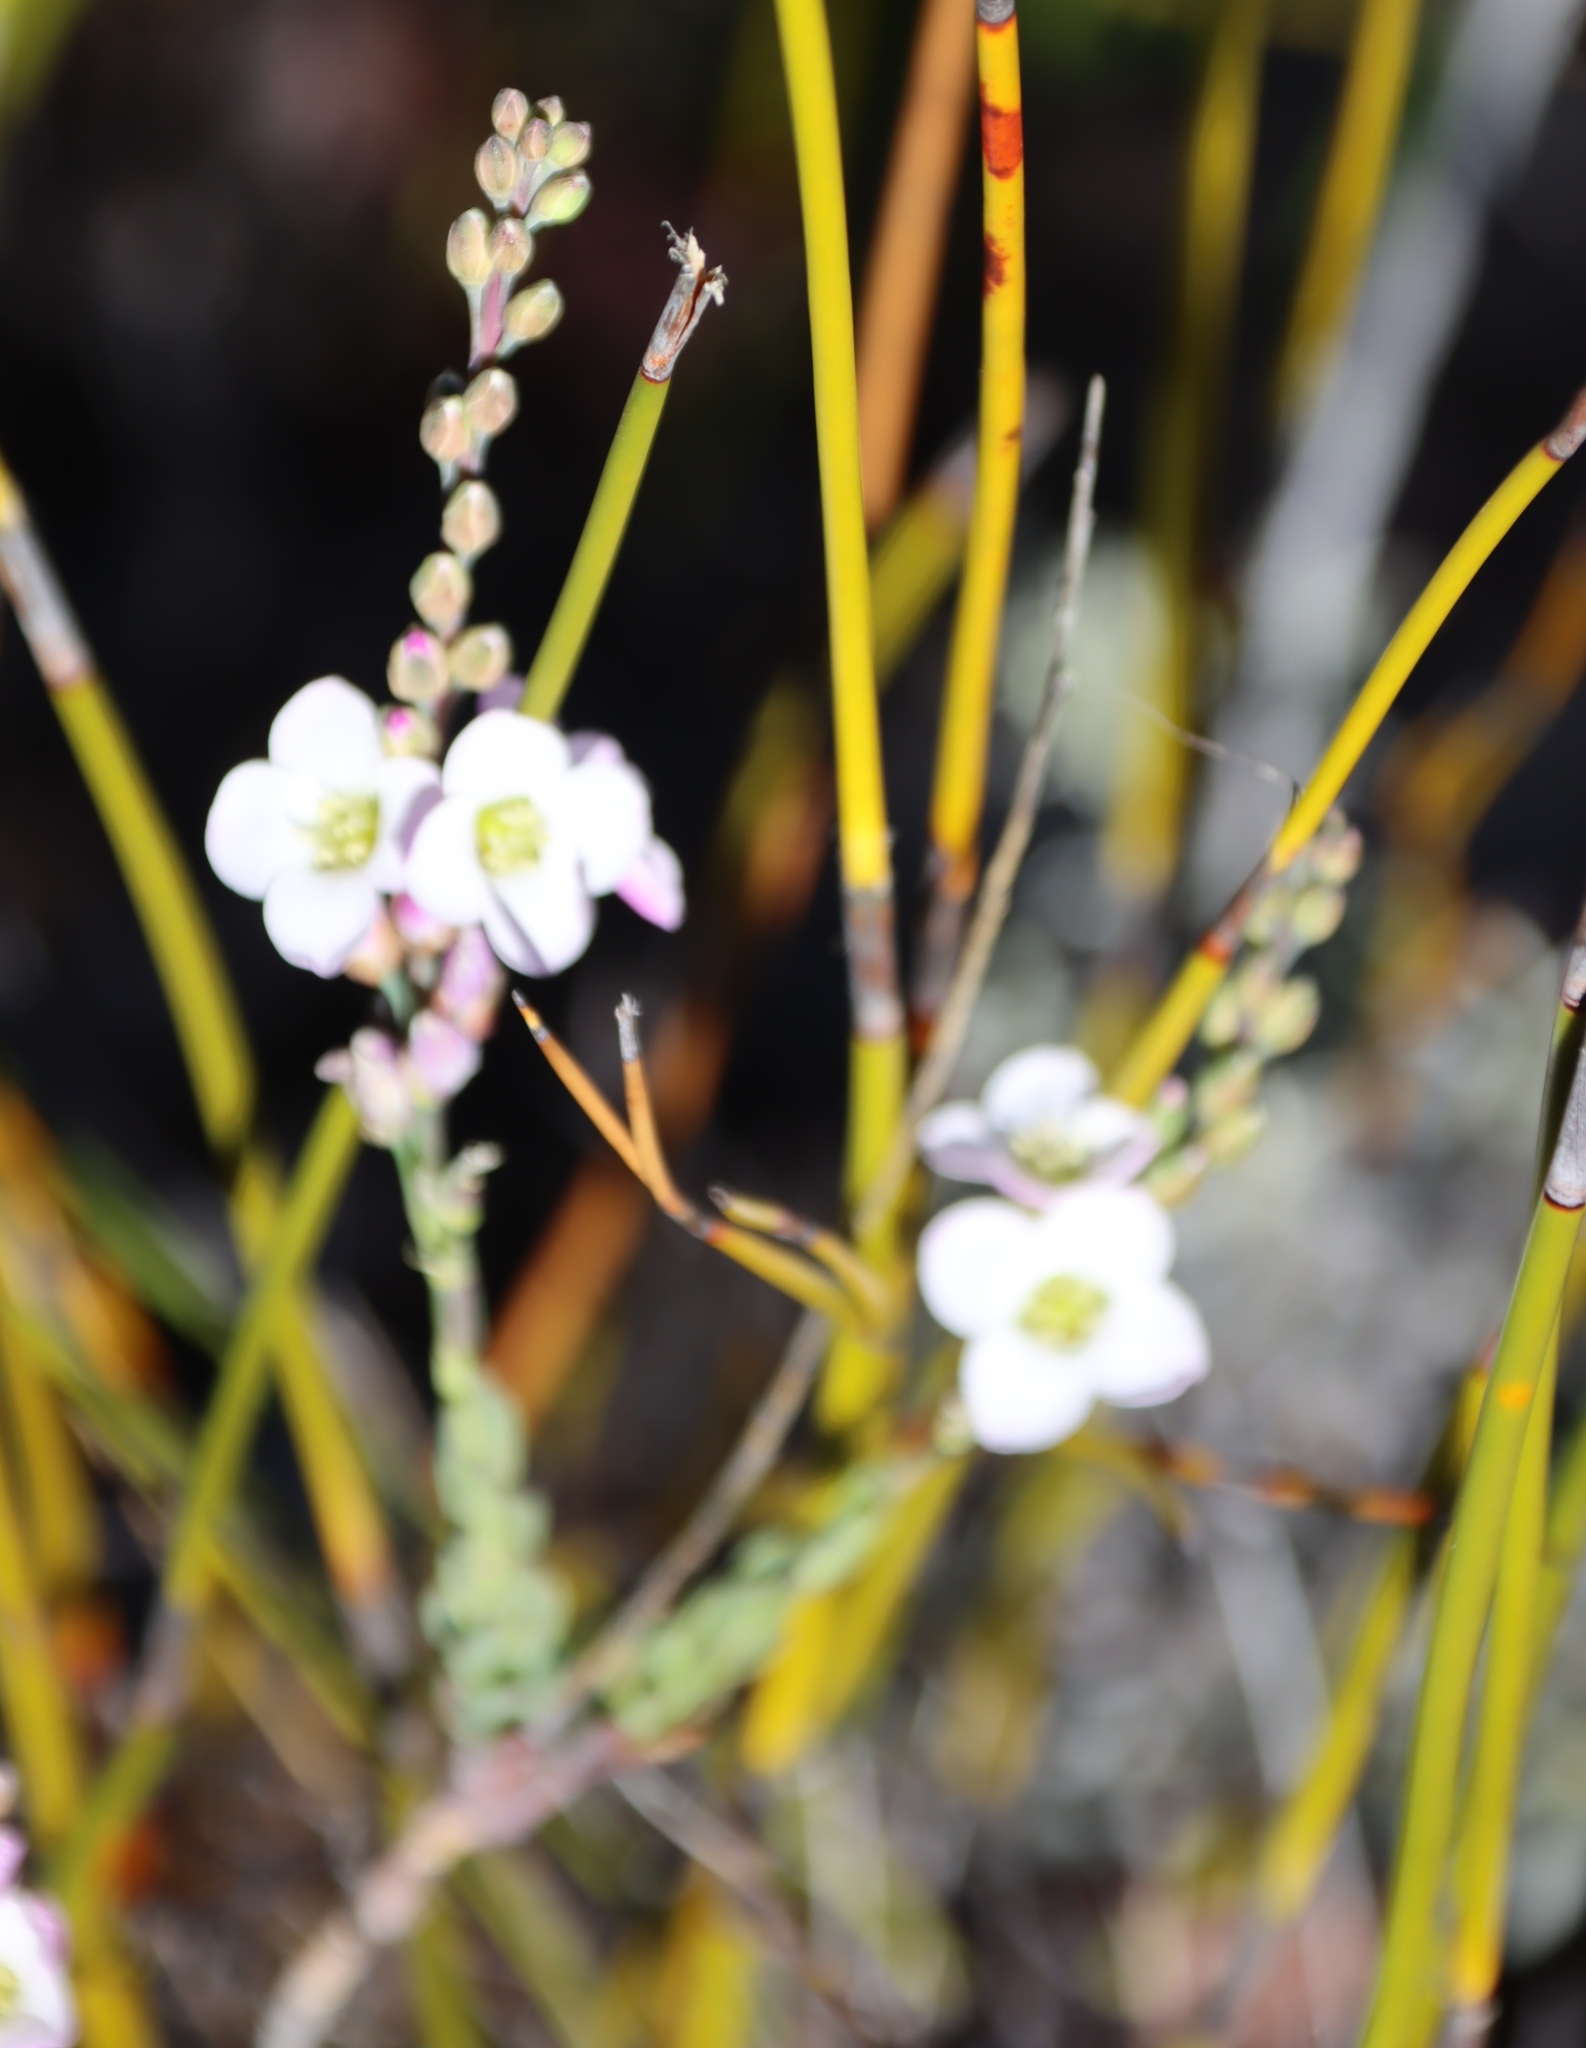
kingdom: Plantae
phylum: Tracheophyta
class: Magnoliopsida
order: Brassicales
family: Brassicaceae
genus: Heliophila
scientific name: Heliophila glauca
